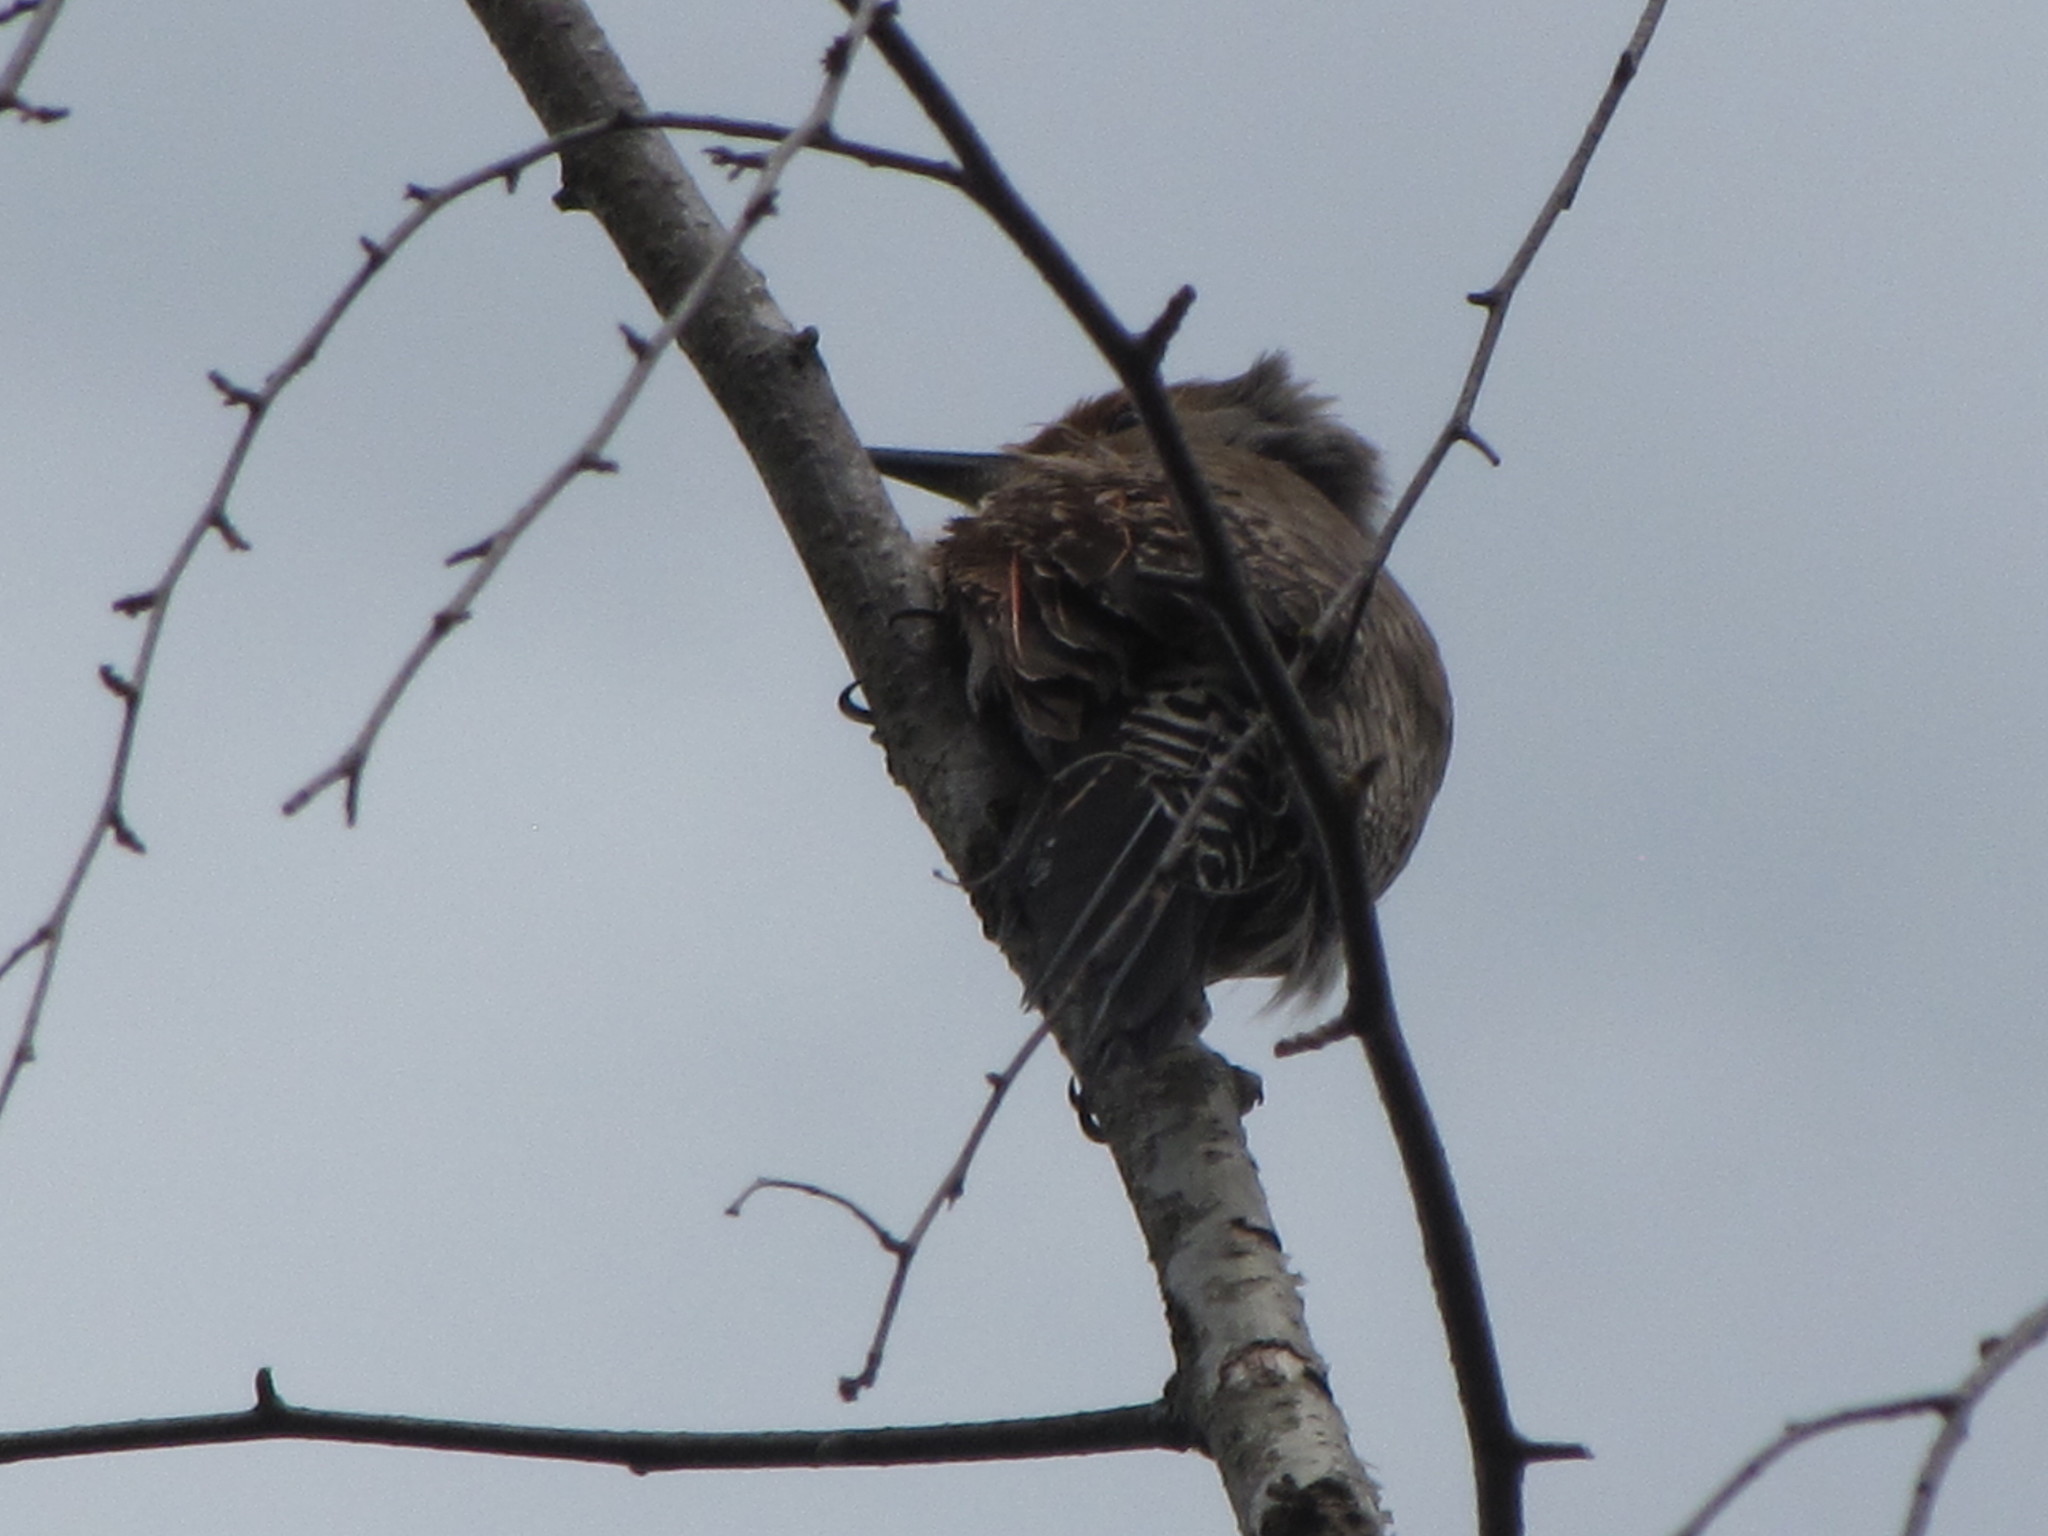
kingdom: Animalia
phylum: Chordata
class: Aves
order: Piciformes
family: Picidae
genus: Colaptes
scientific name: Colaptes auratus
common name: Northern flicker
